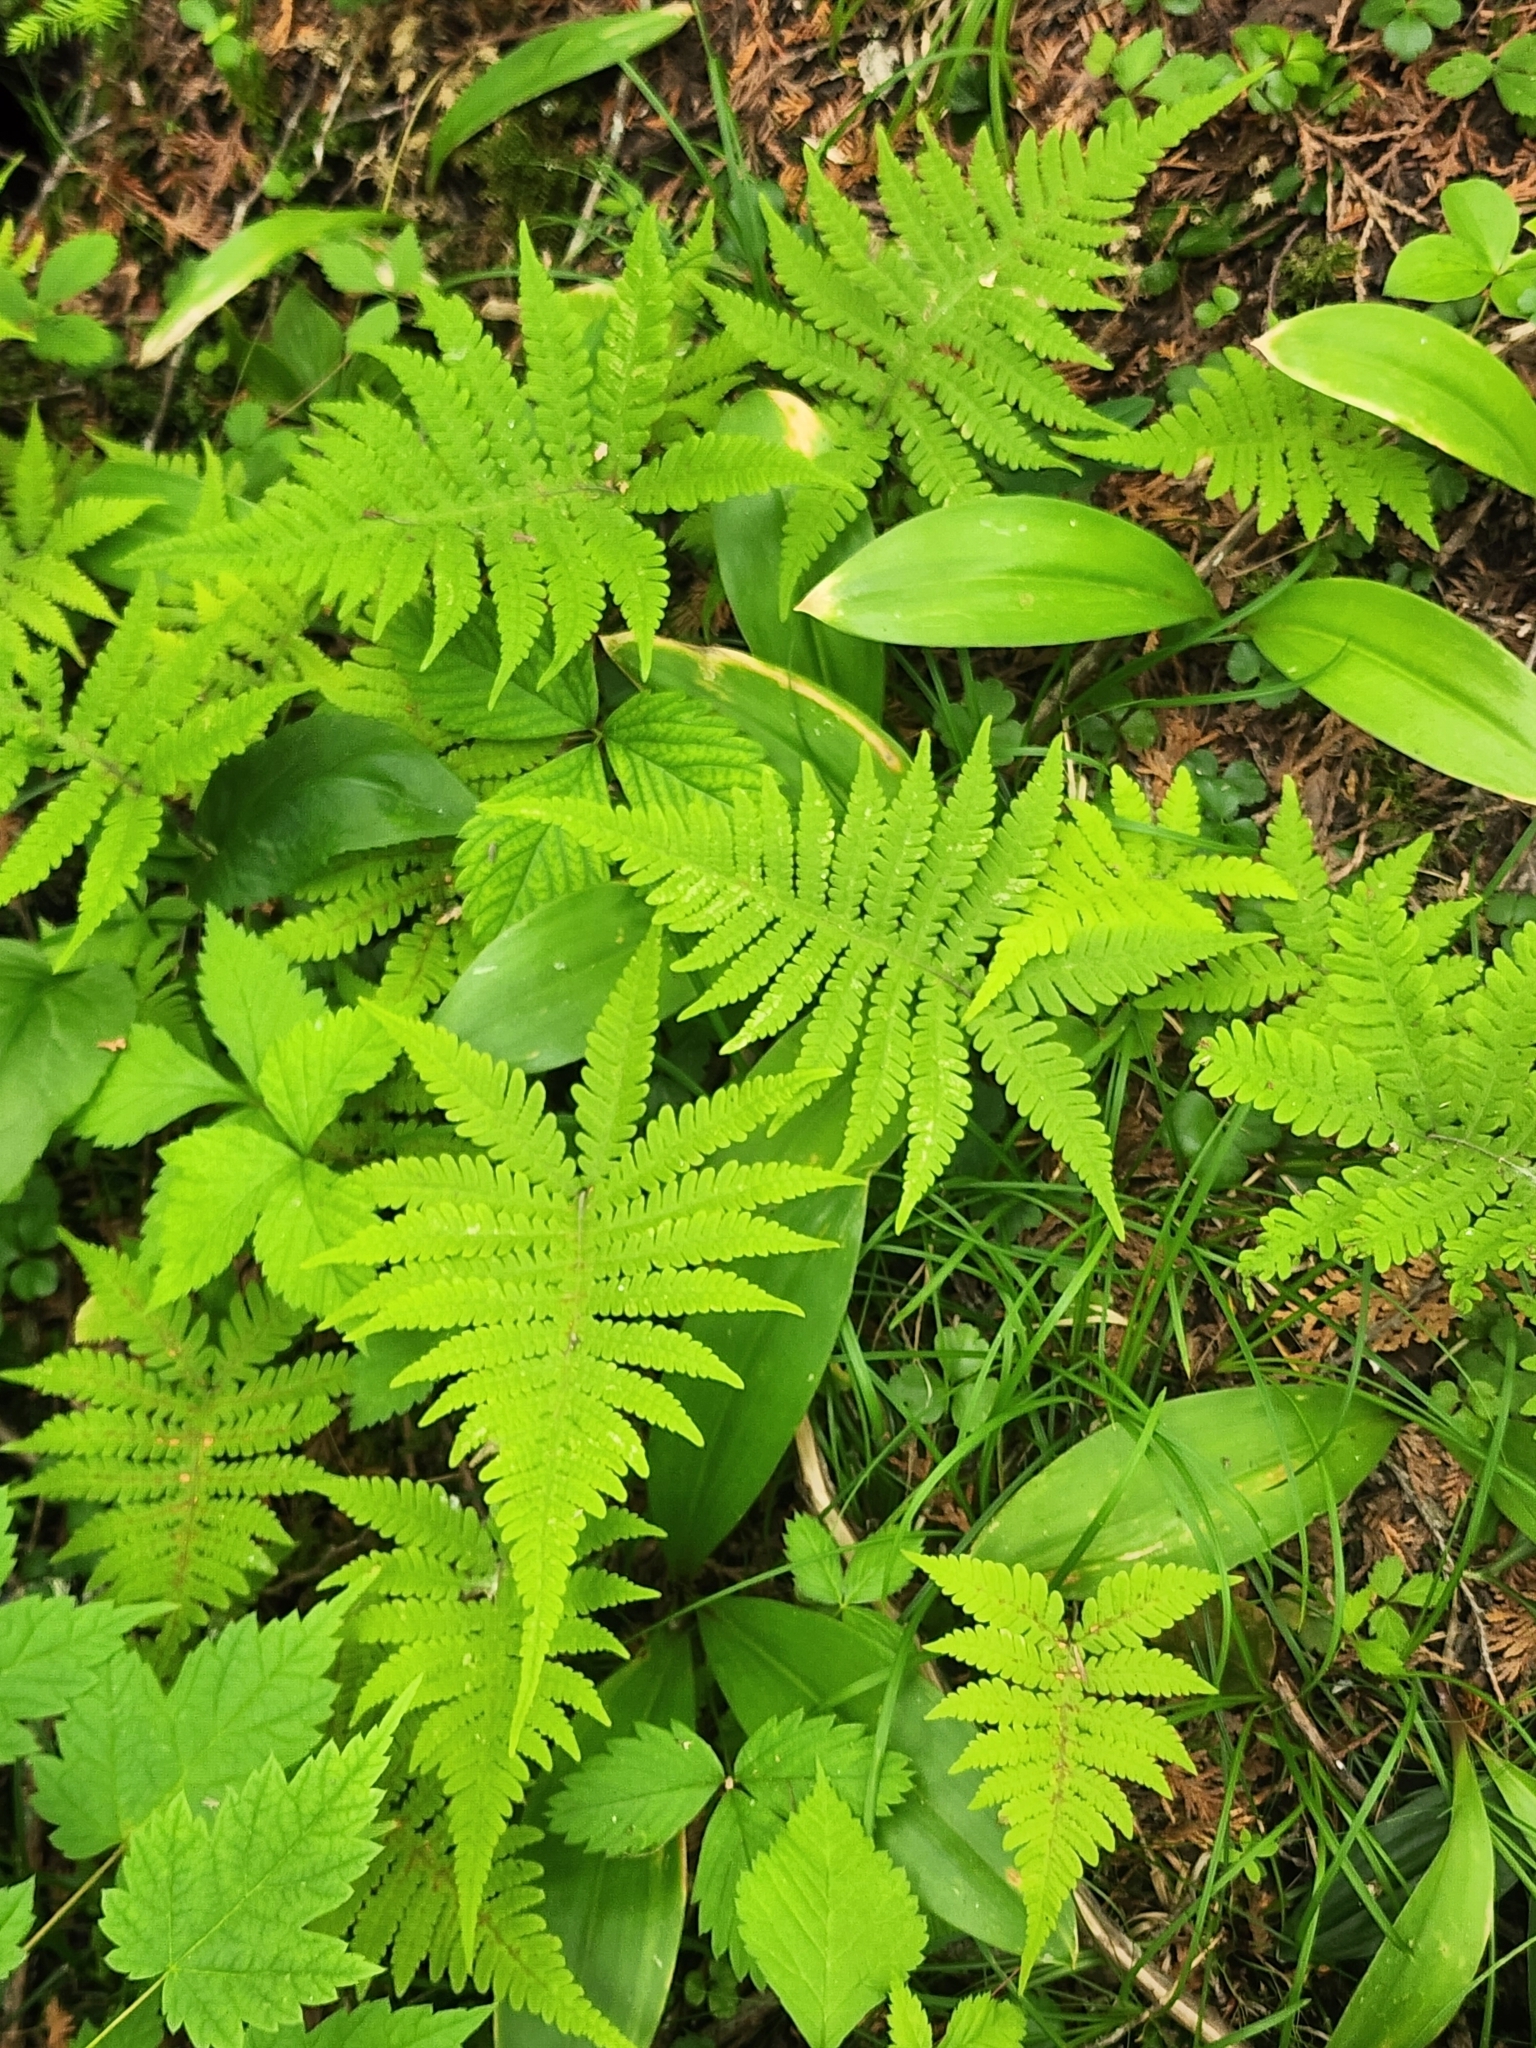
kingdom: Plantae
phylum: Tracheophyta
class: Polypodiopsida
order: Polypodiales
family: Thelypteridaceae
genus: Phegopteris
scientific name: Phegopteris connectilis
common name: Beech fern
